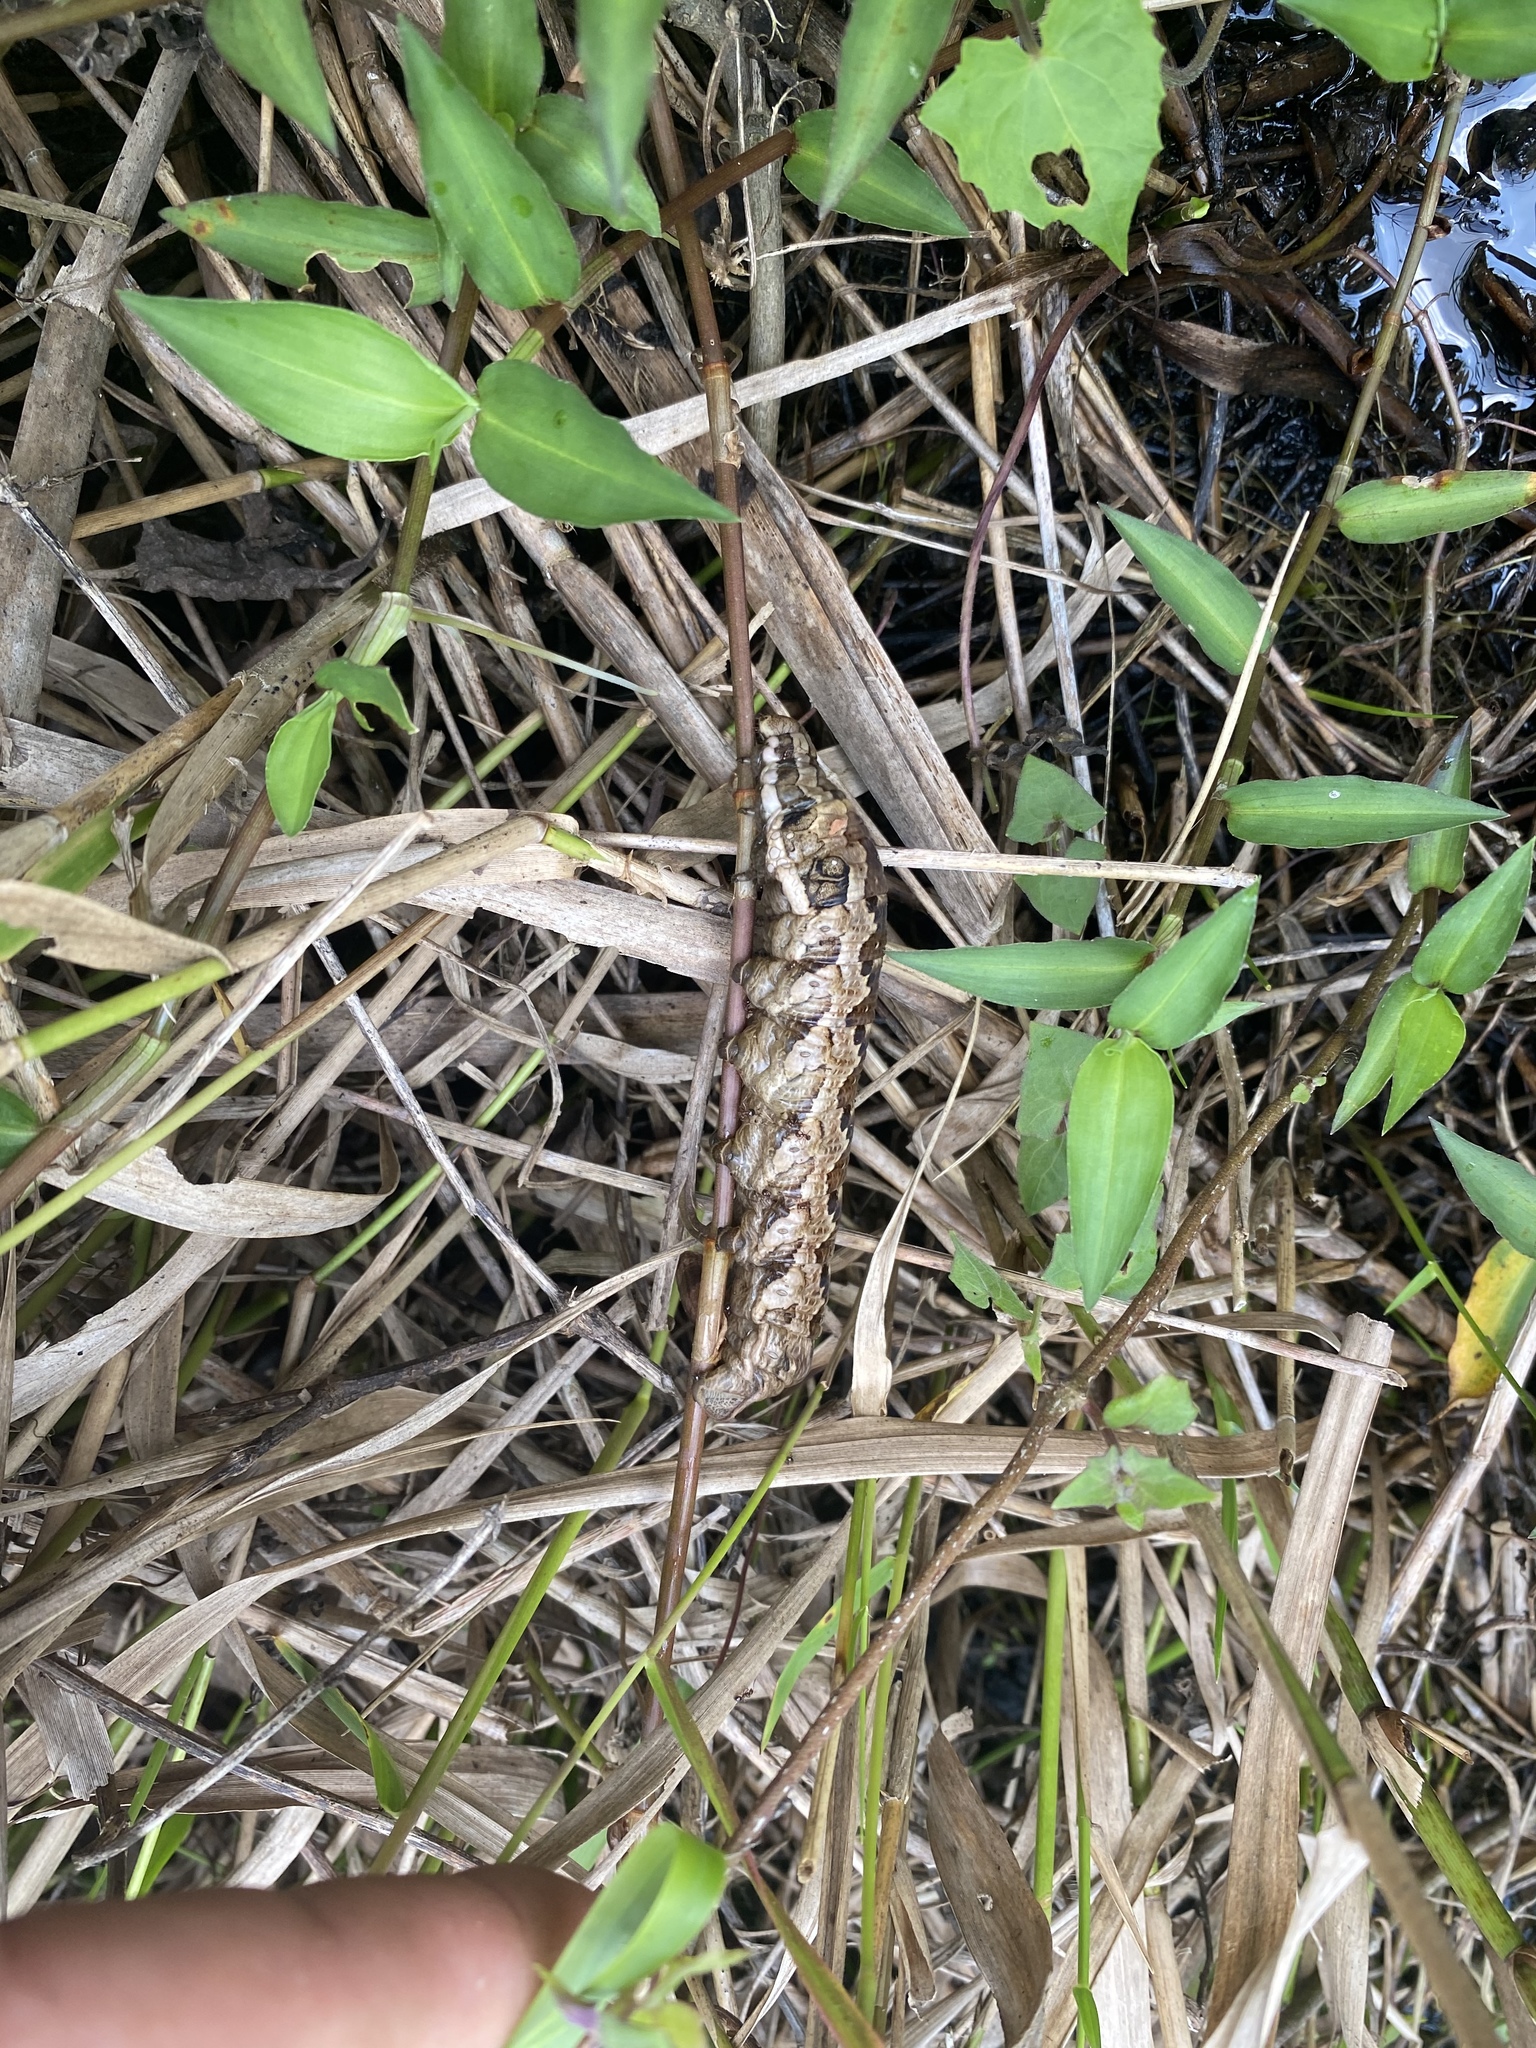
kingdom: Animalia
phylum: Arthropoda
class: Insecta
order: Lepidoptera
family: Sphingidae
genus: Eumorpha
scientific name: Eumorpha labruscae
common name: Gaudy sphinx
